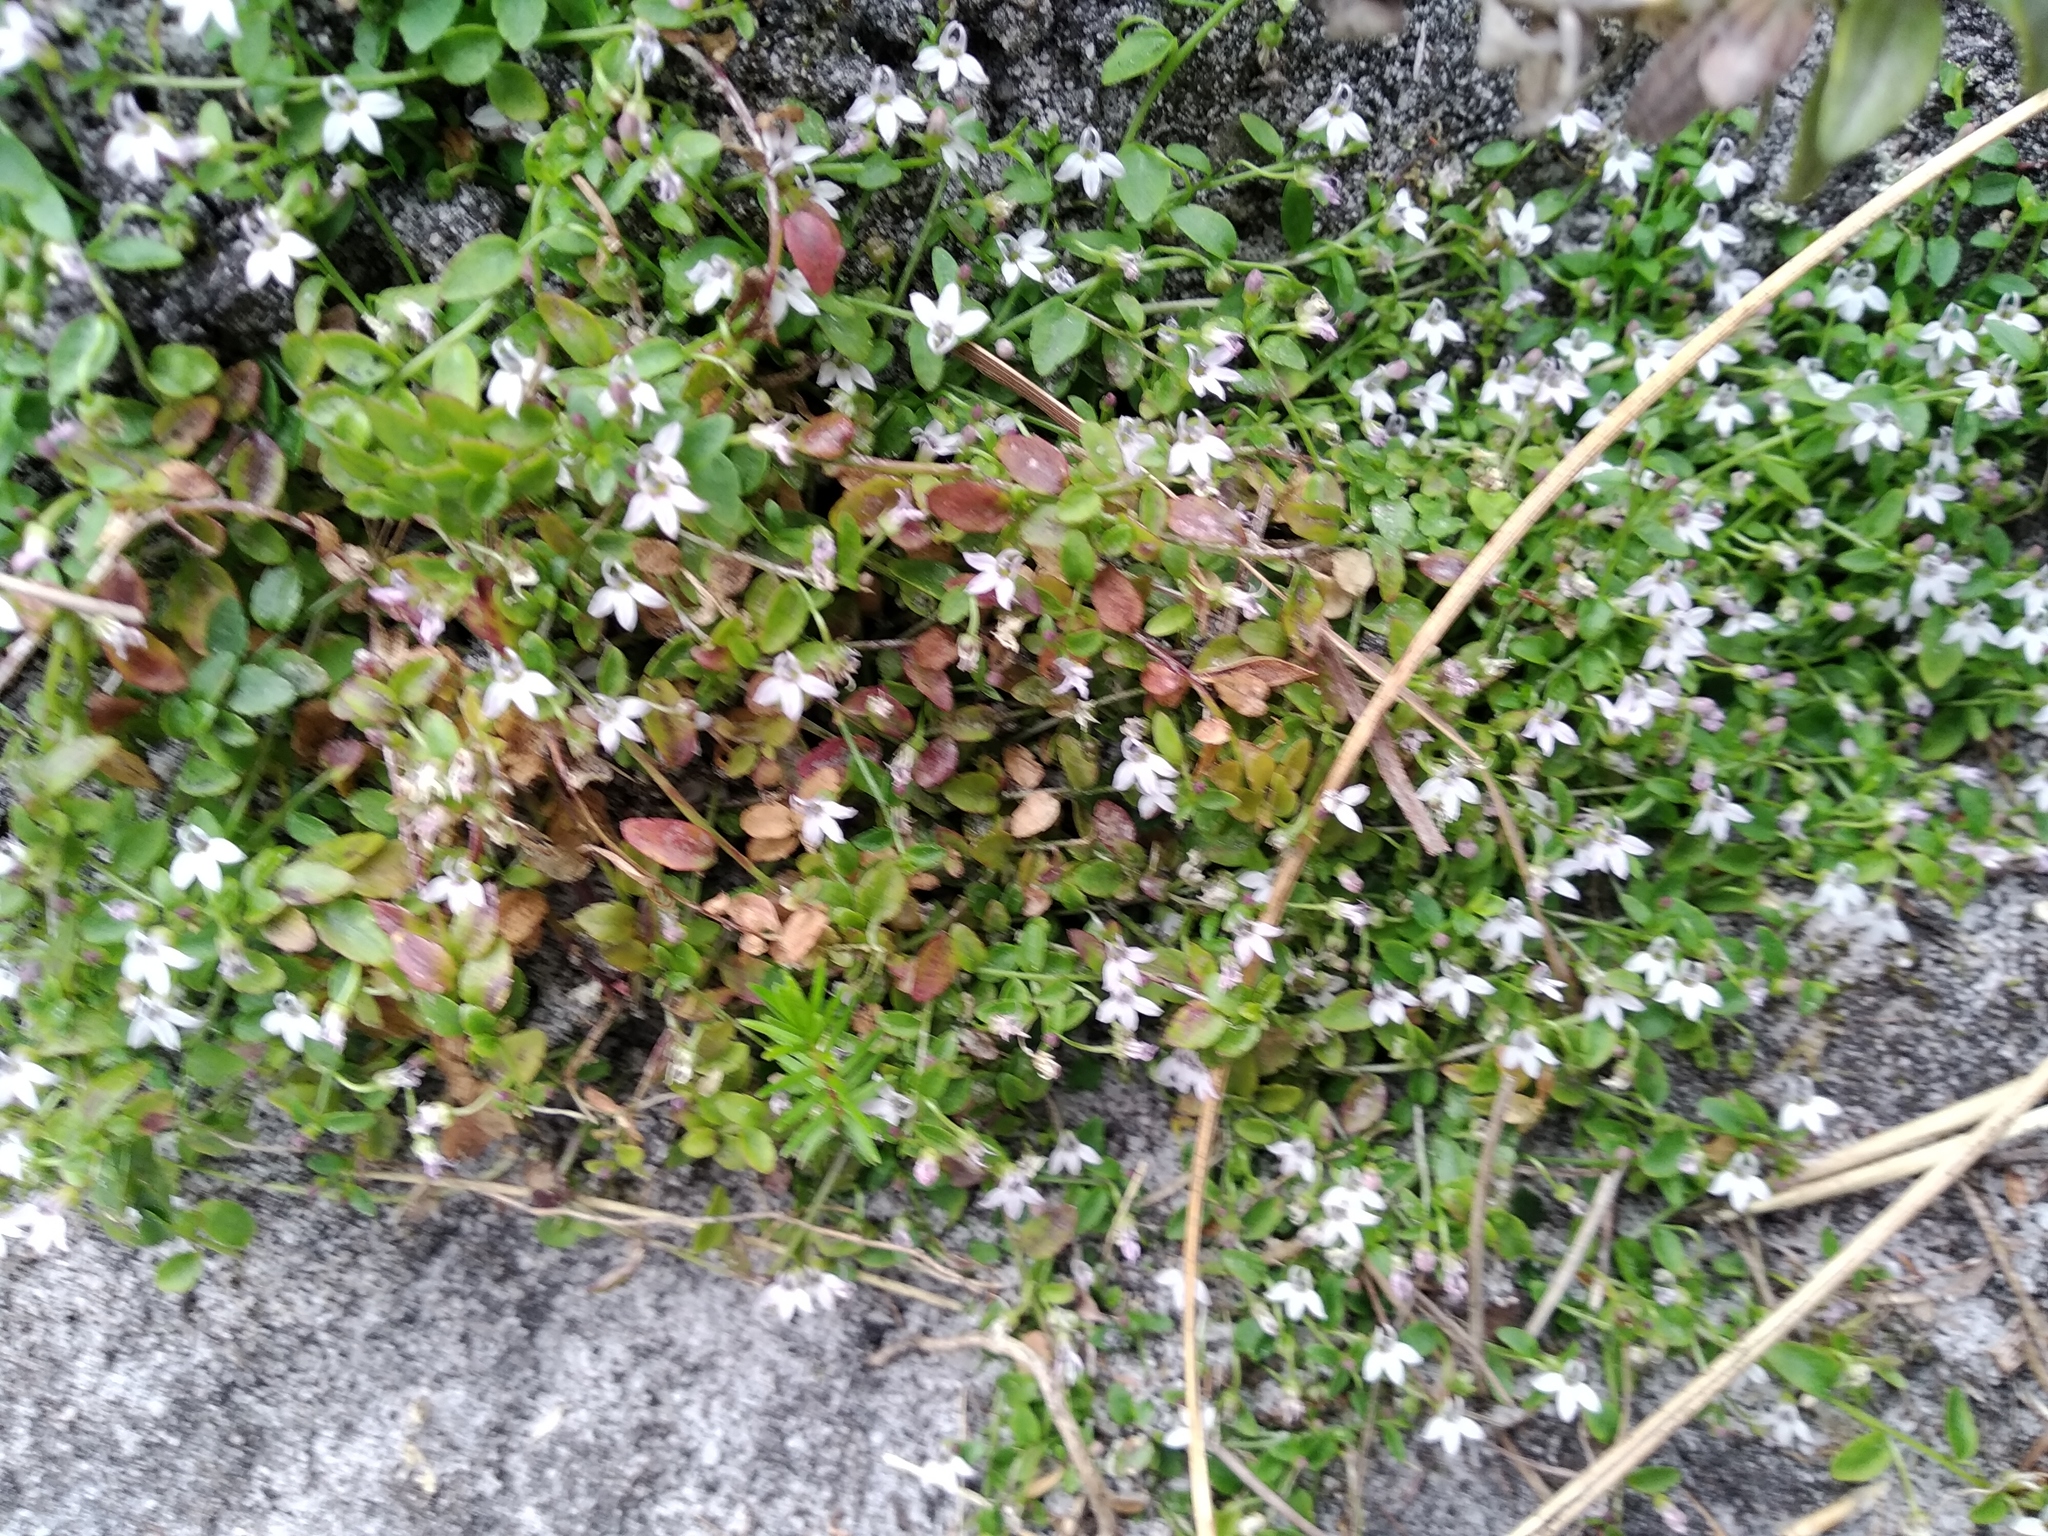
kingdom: Plantae
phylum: Tracheophyta
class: Magnoliopsida
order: Asterales
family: Campanulaceae
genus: Unigenes
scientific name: Unigenes humifusa
